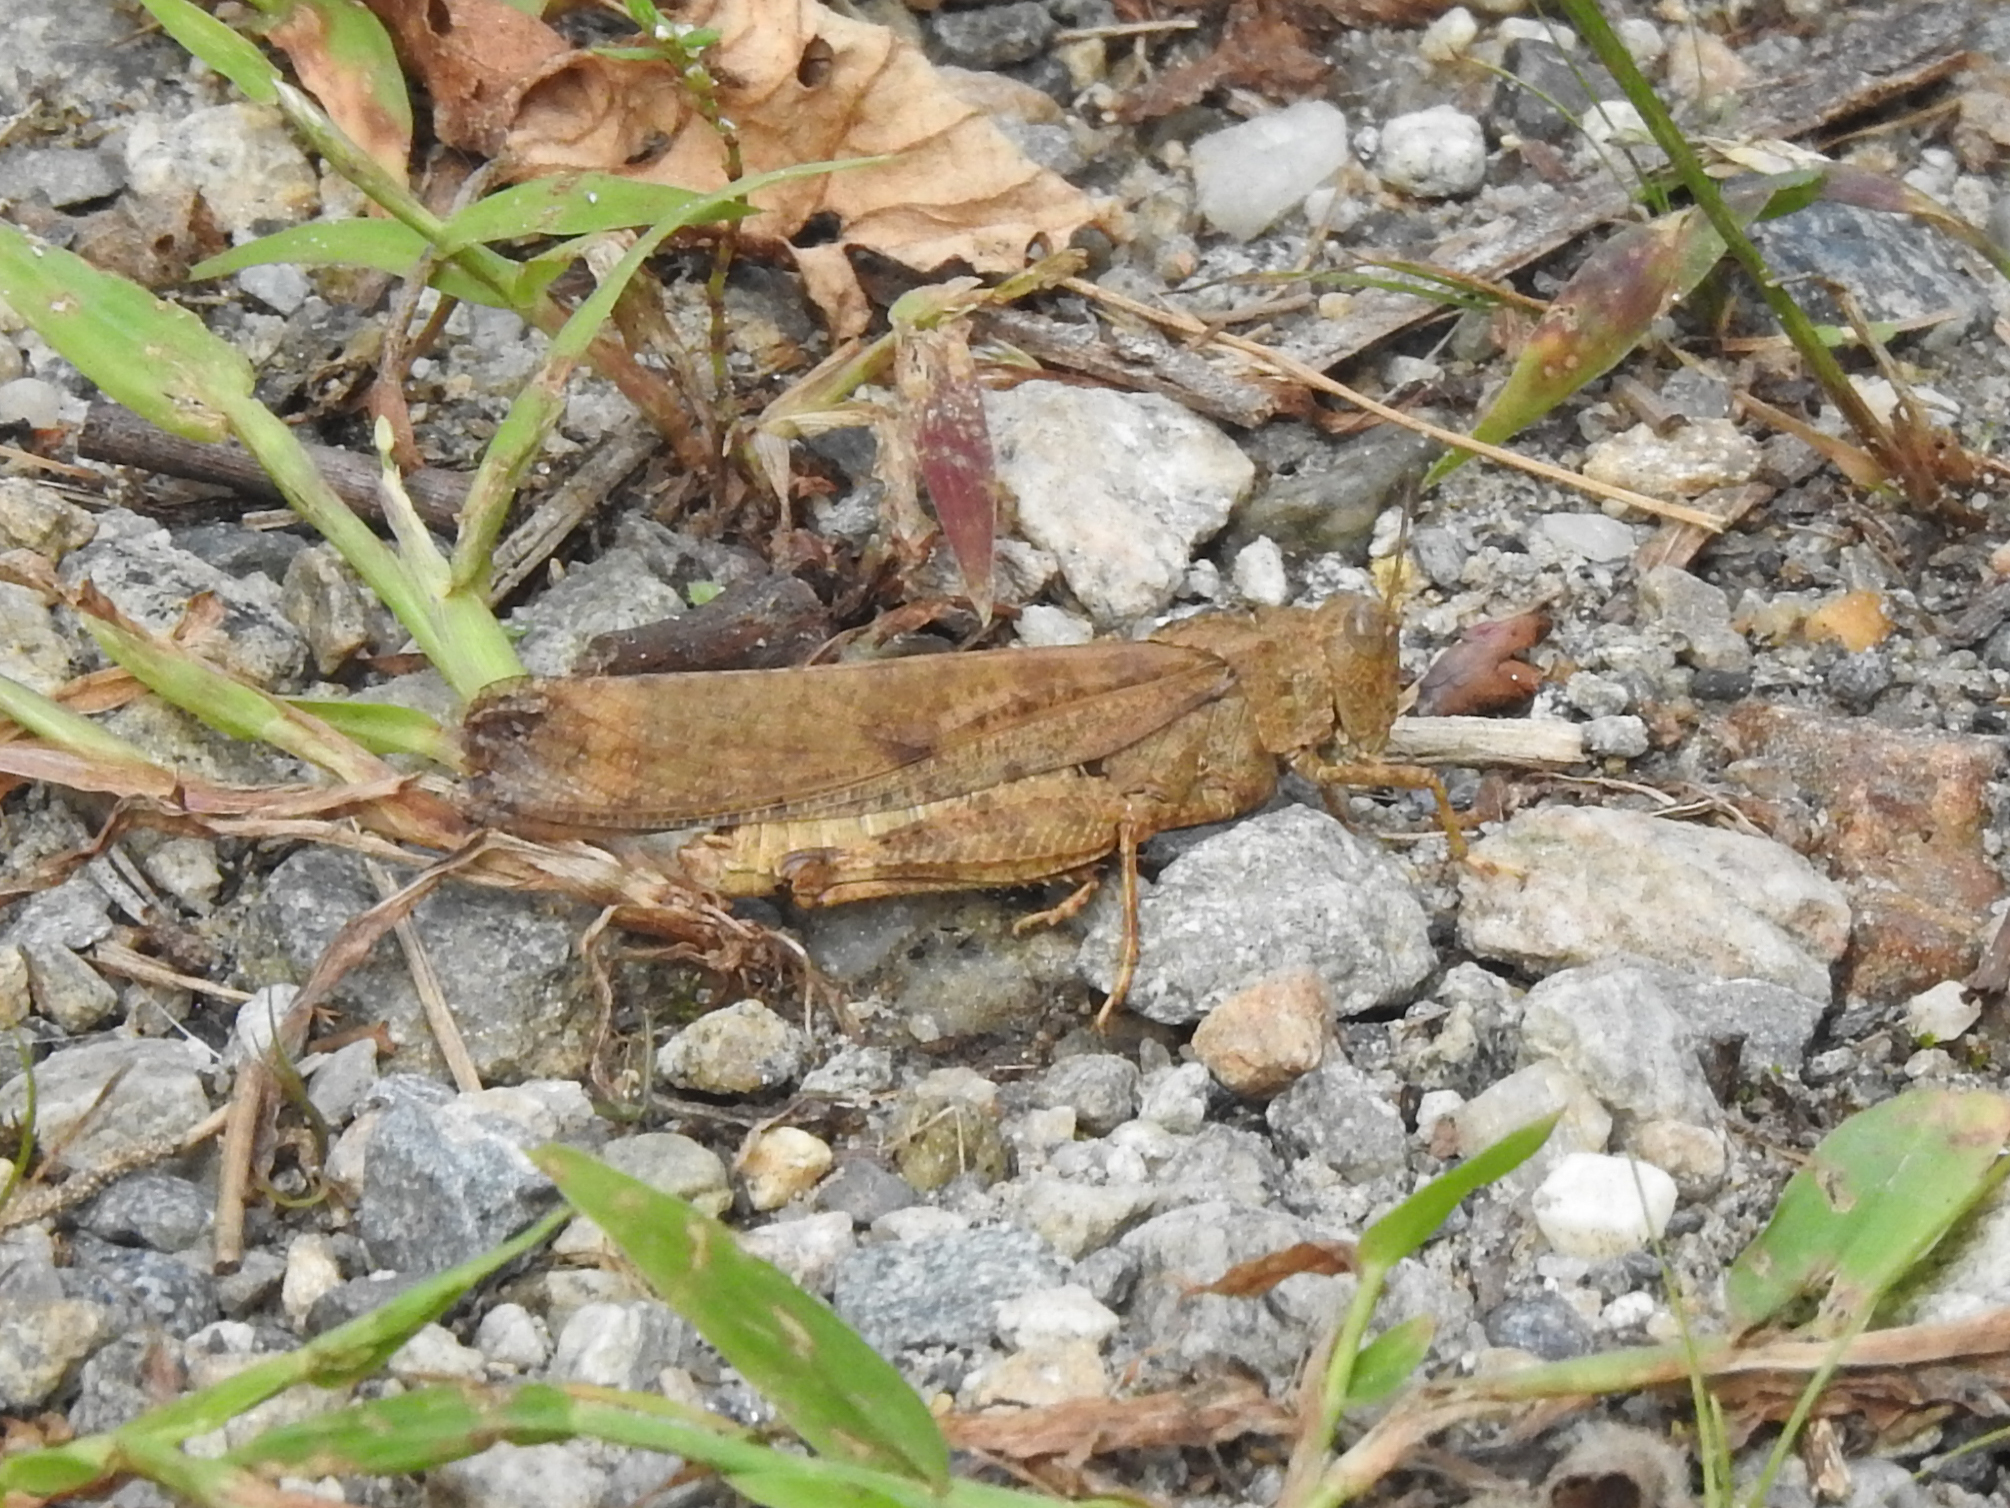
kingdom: Animalia
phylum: Arthropoda
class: Insecta
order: Orthoptera
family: Acrididae
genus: Dissosteira
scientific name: Dissosteira carolina
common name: Carolina grasshopper
